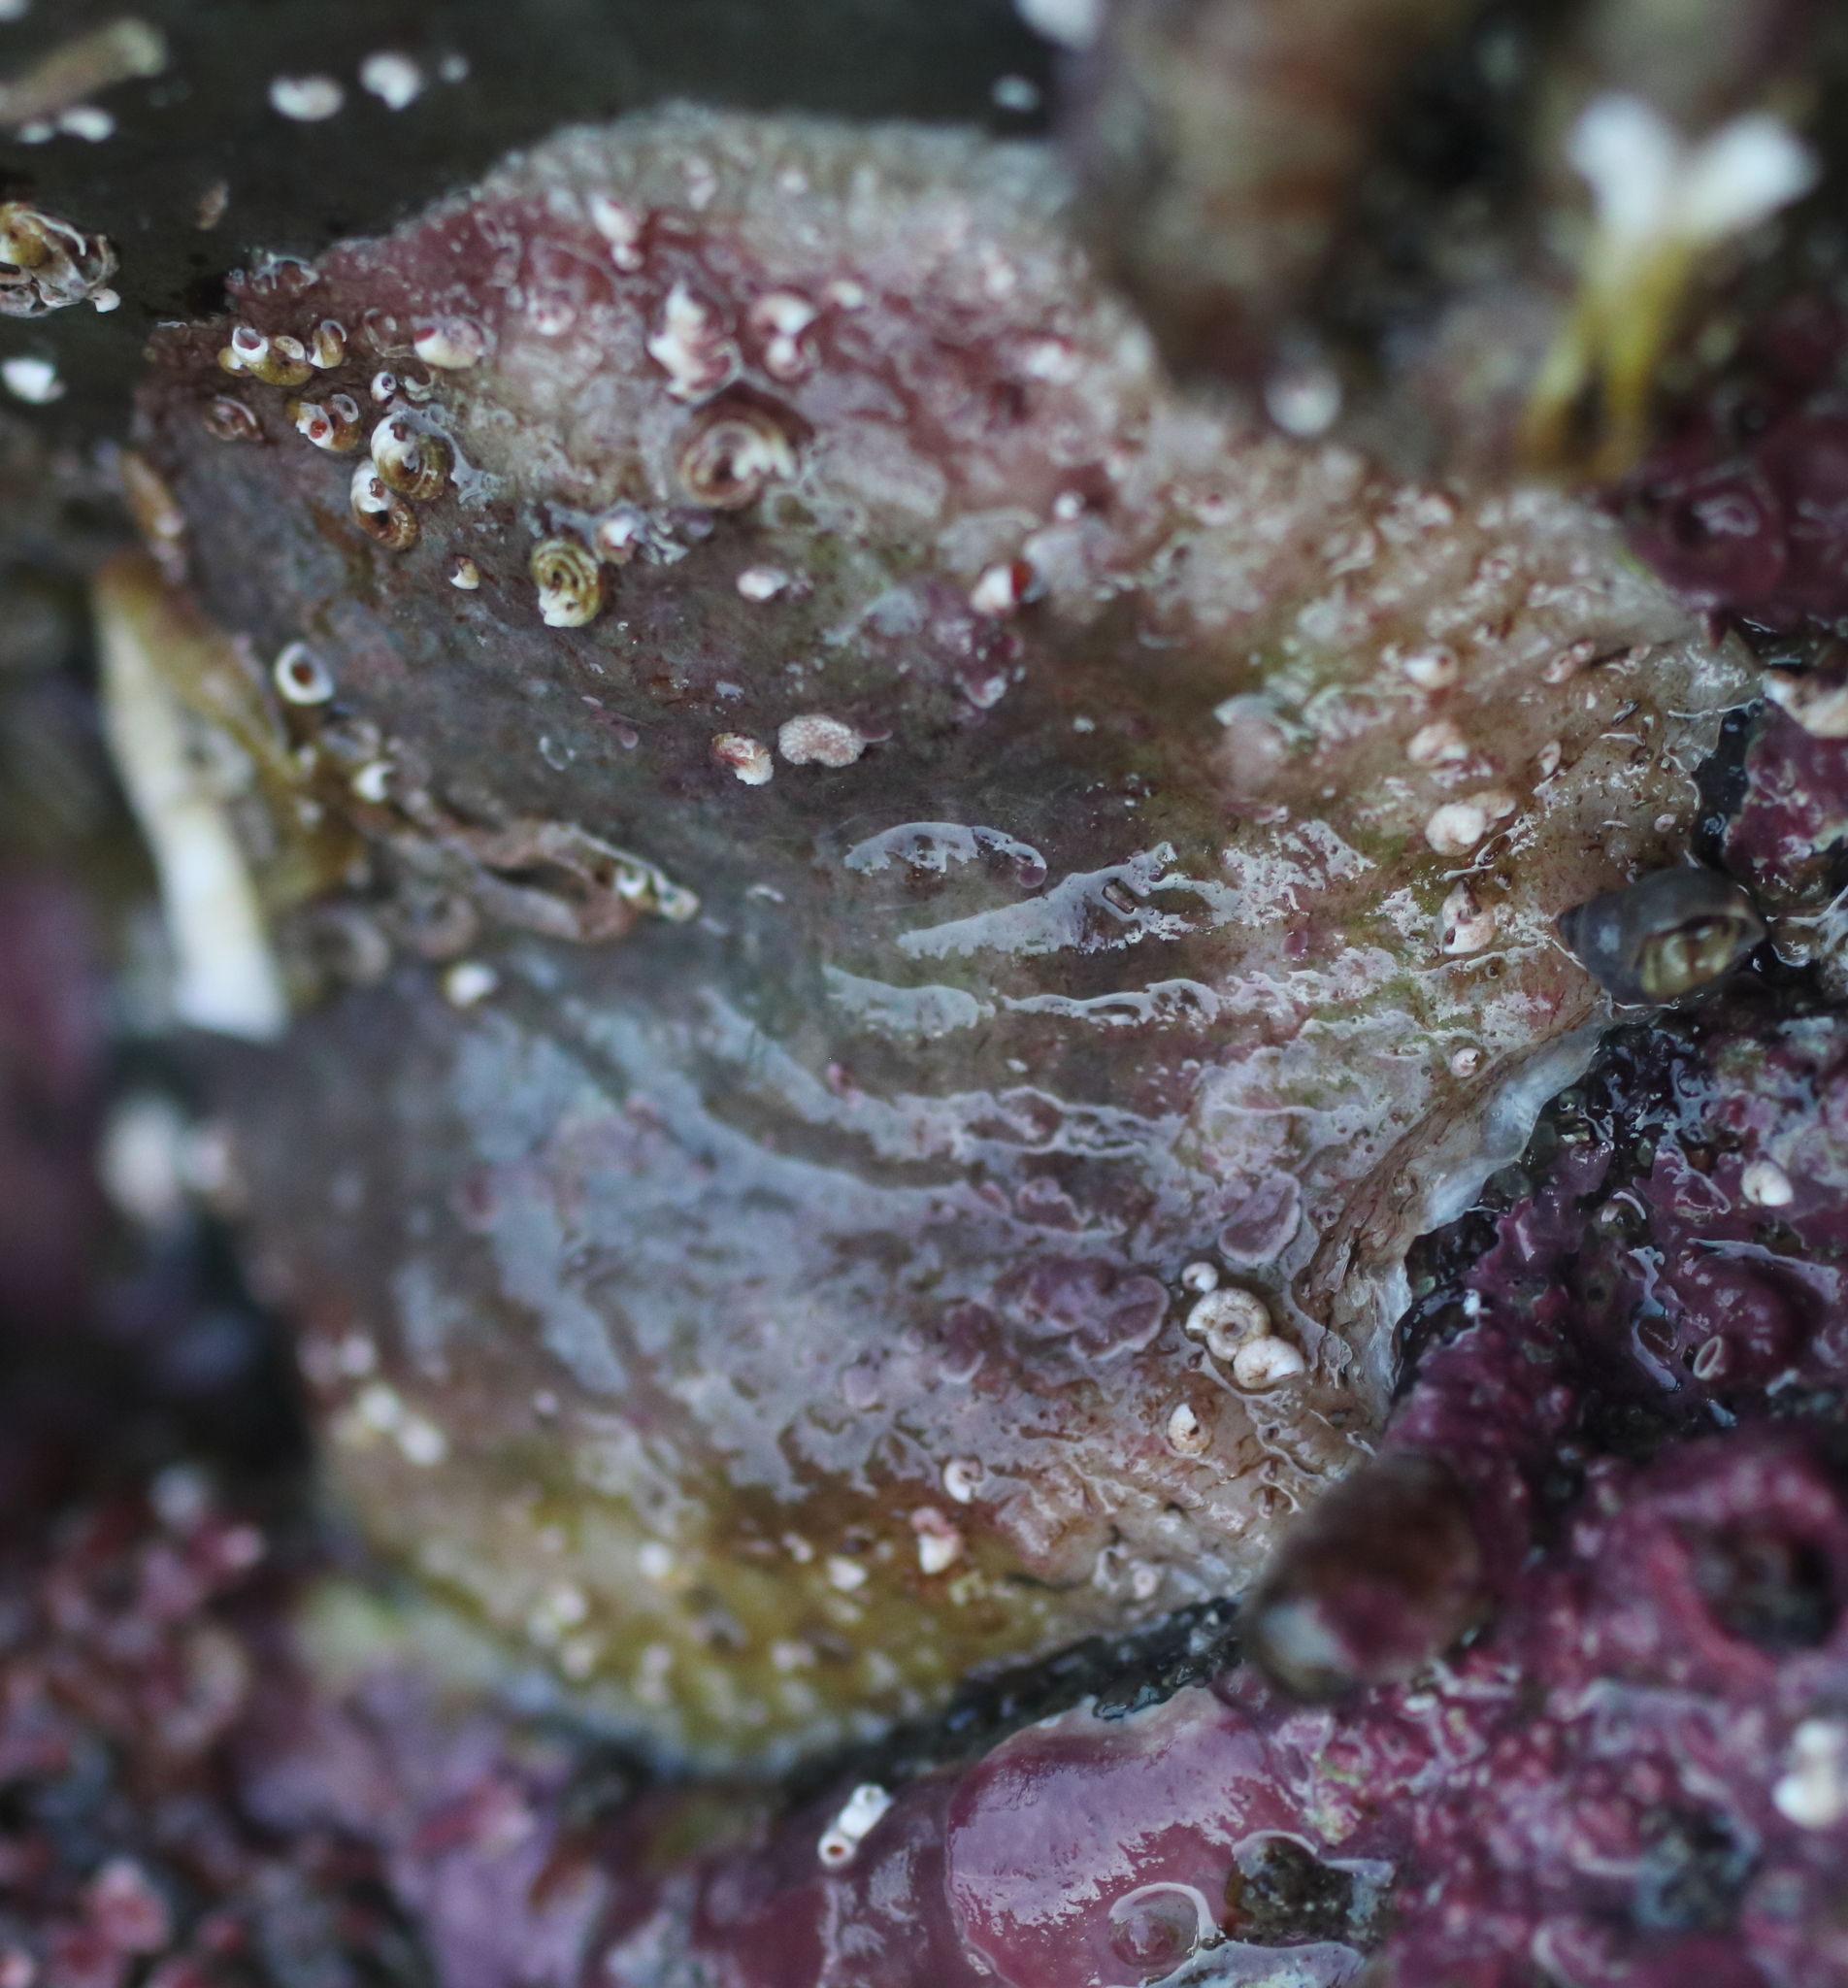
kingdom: Animalia
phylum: Mollusca
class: Bivalvia
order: Pectinida
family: Anomiidae
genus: Pododesmus
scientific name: Pododesmus macrochisma
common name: Alaska jingle
